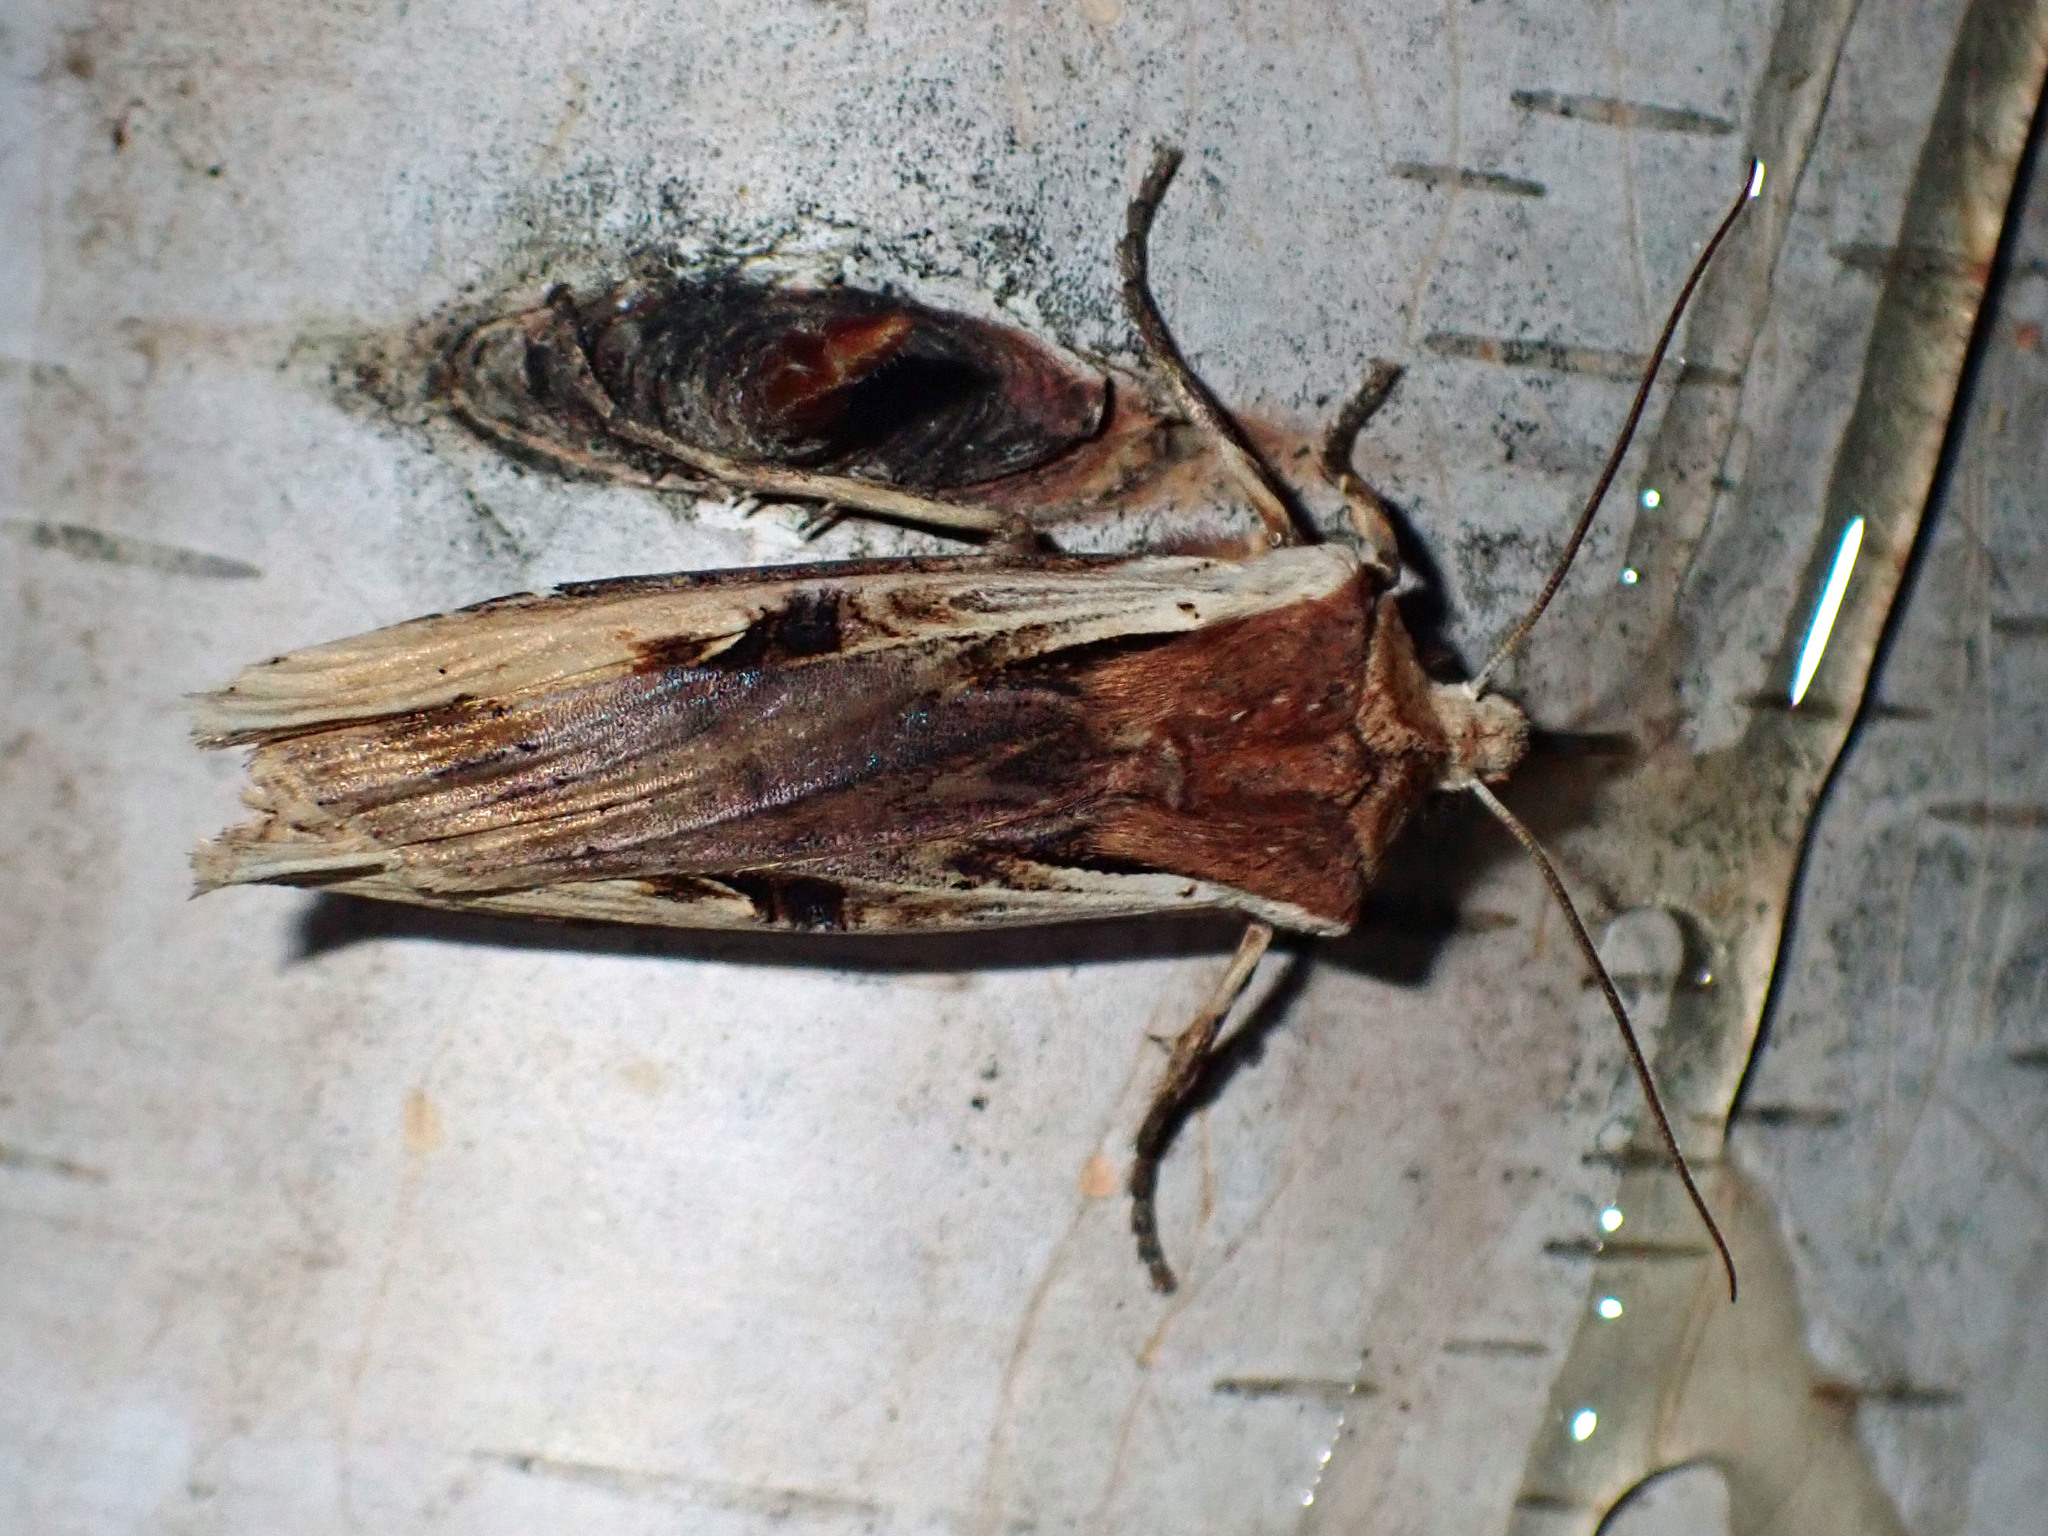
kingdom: Animalia
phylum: Arthropoda
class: Insecta
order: Lepidoptera
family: Noctuidae
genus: Xylena
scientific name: Xylena curvimacula
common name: Dot-and-dash swordgrass moth
